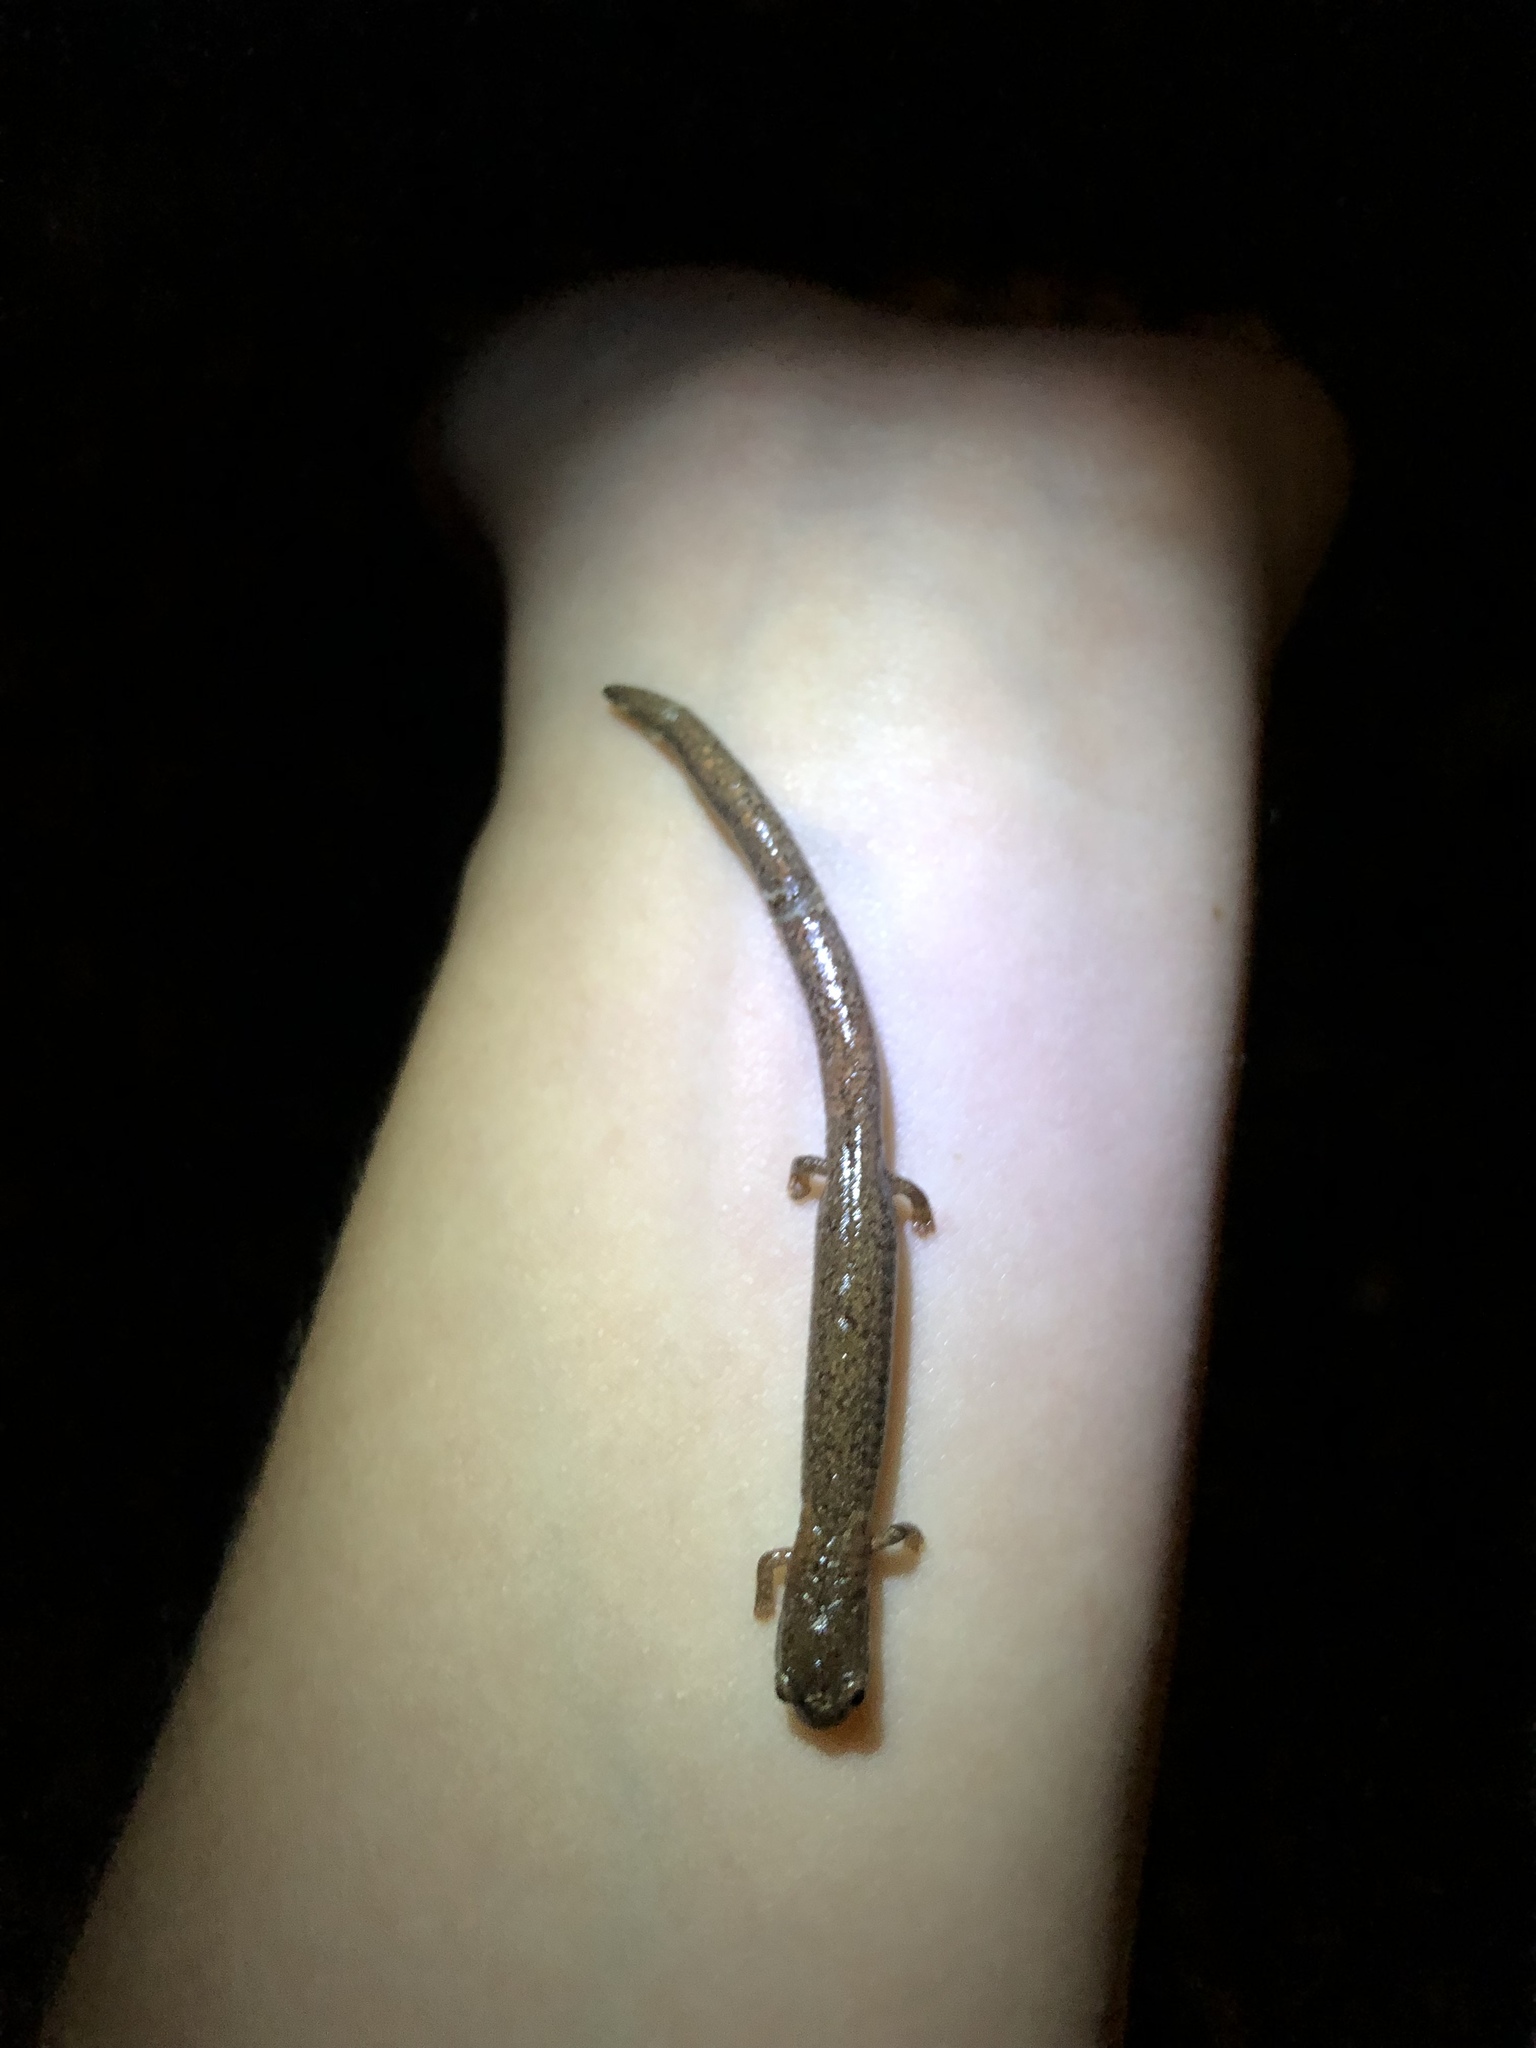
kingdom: Animalia
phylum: Chordata
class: Amphibia
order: Caudata
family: Plethodontidae
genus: Batrachoseps
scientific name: Batrachoseps major
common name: Garden slender salamander
